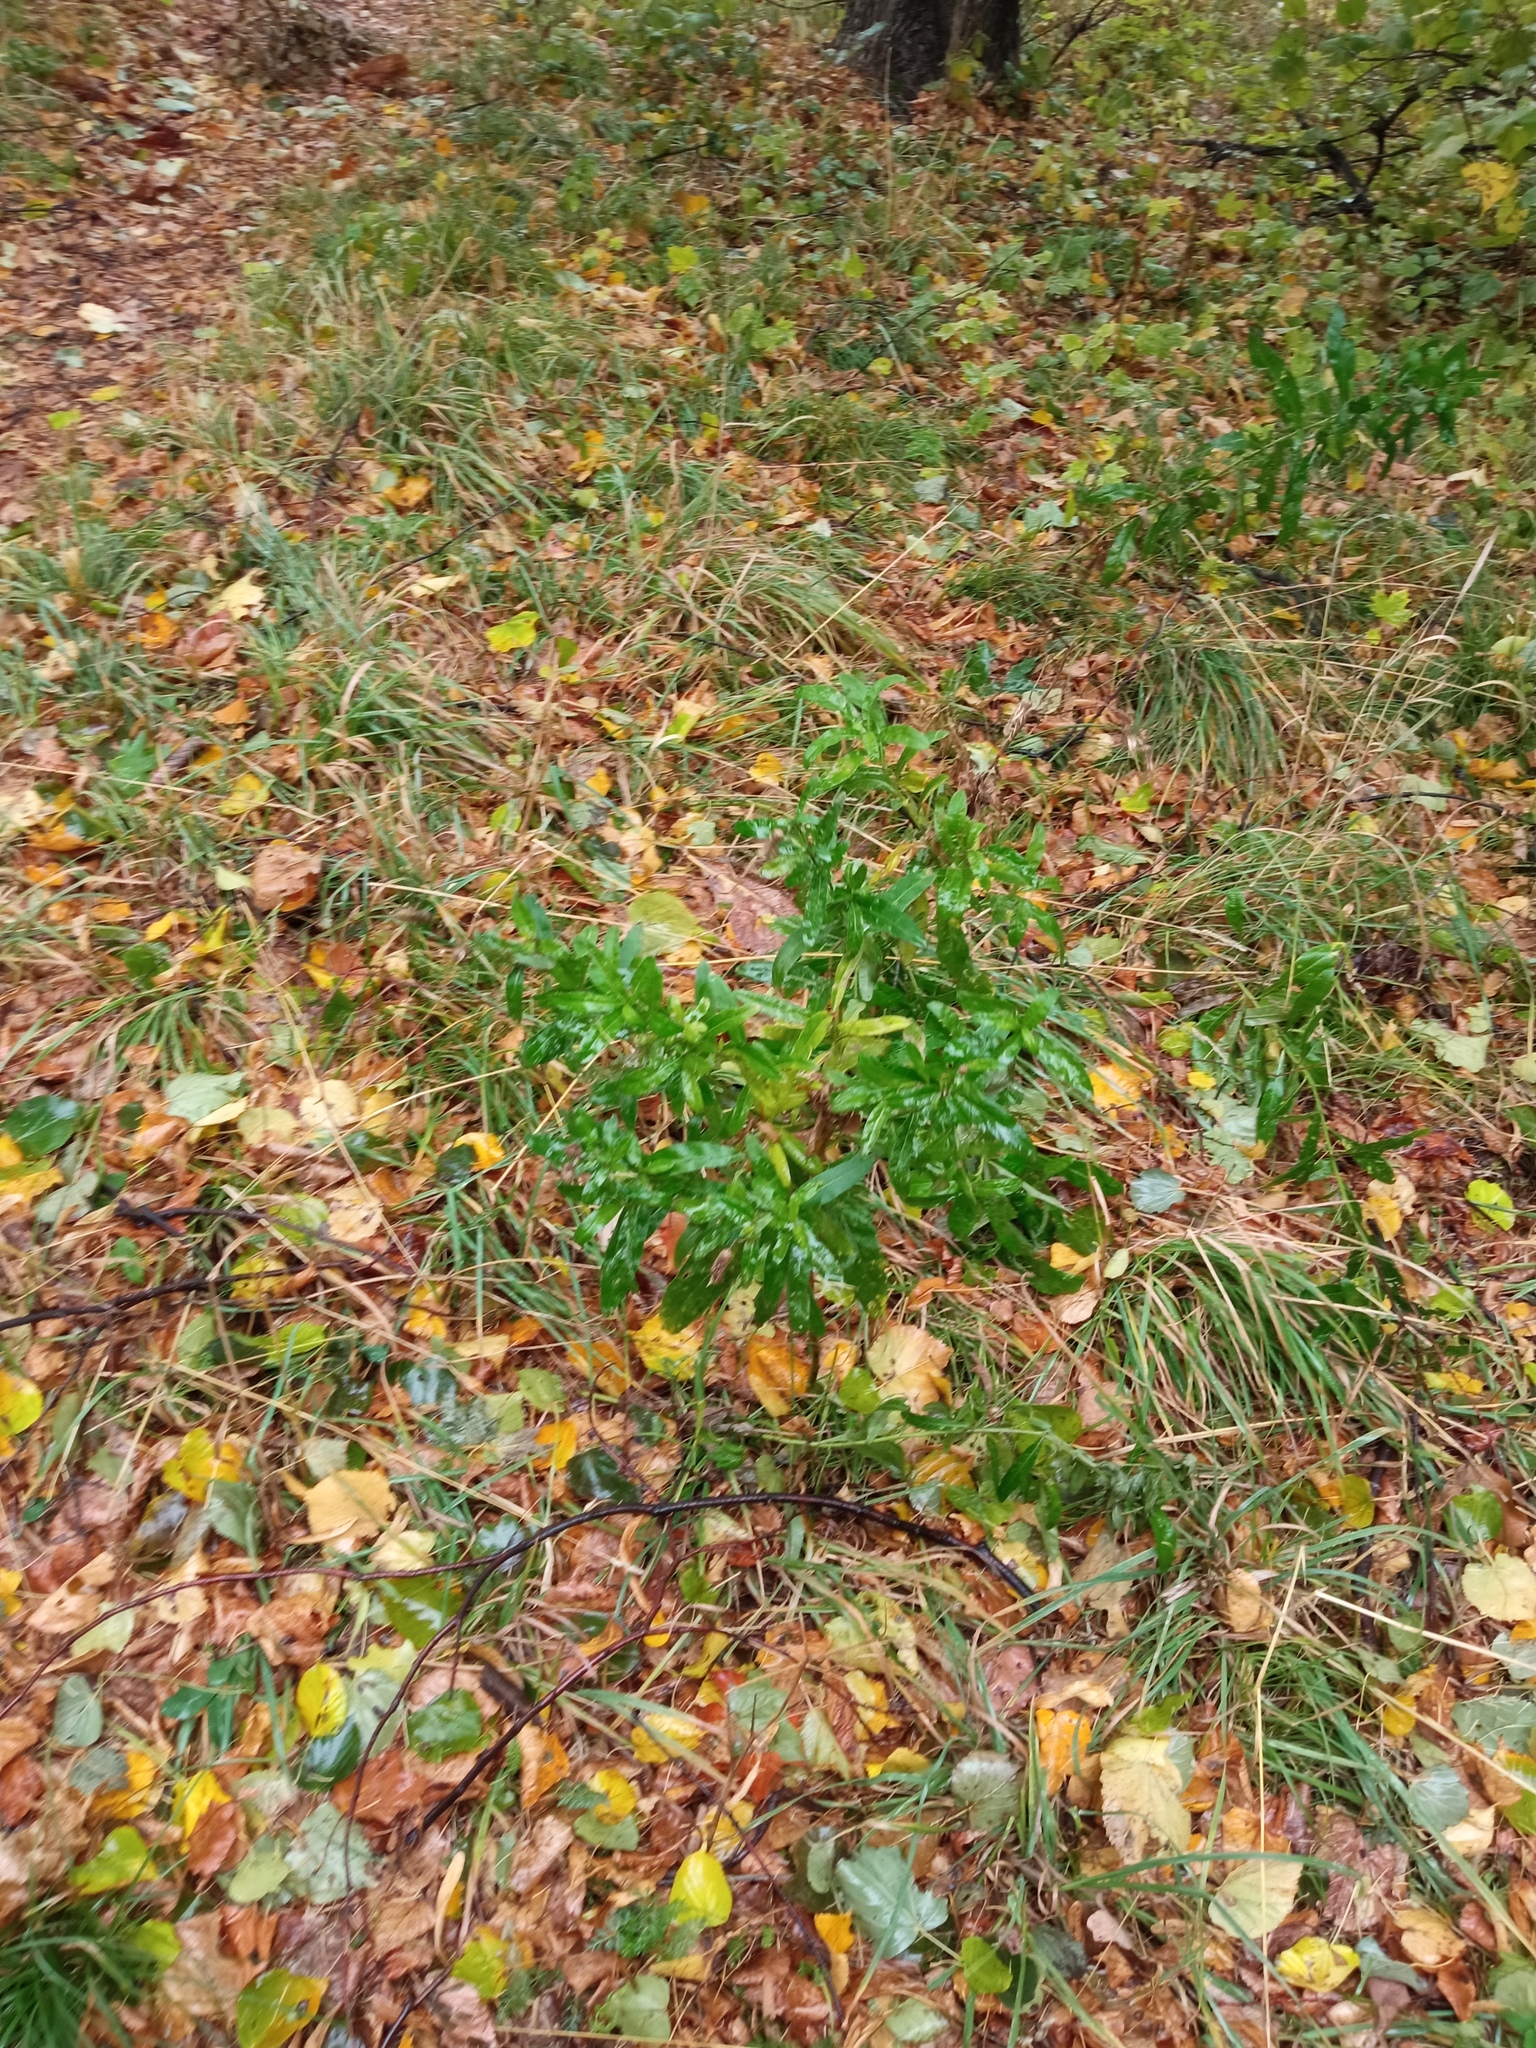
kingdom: Plantae
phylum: Tracheophyta
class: Magnoliopsida
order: Asterales
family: Asteraceae
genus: Cirsium
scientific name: Cirsium arvense
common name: Creeping thistle
